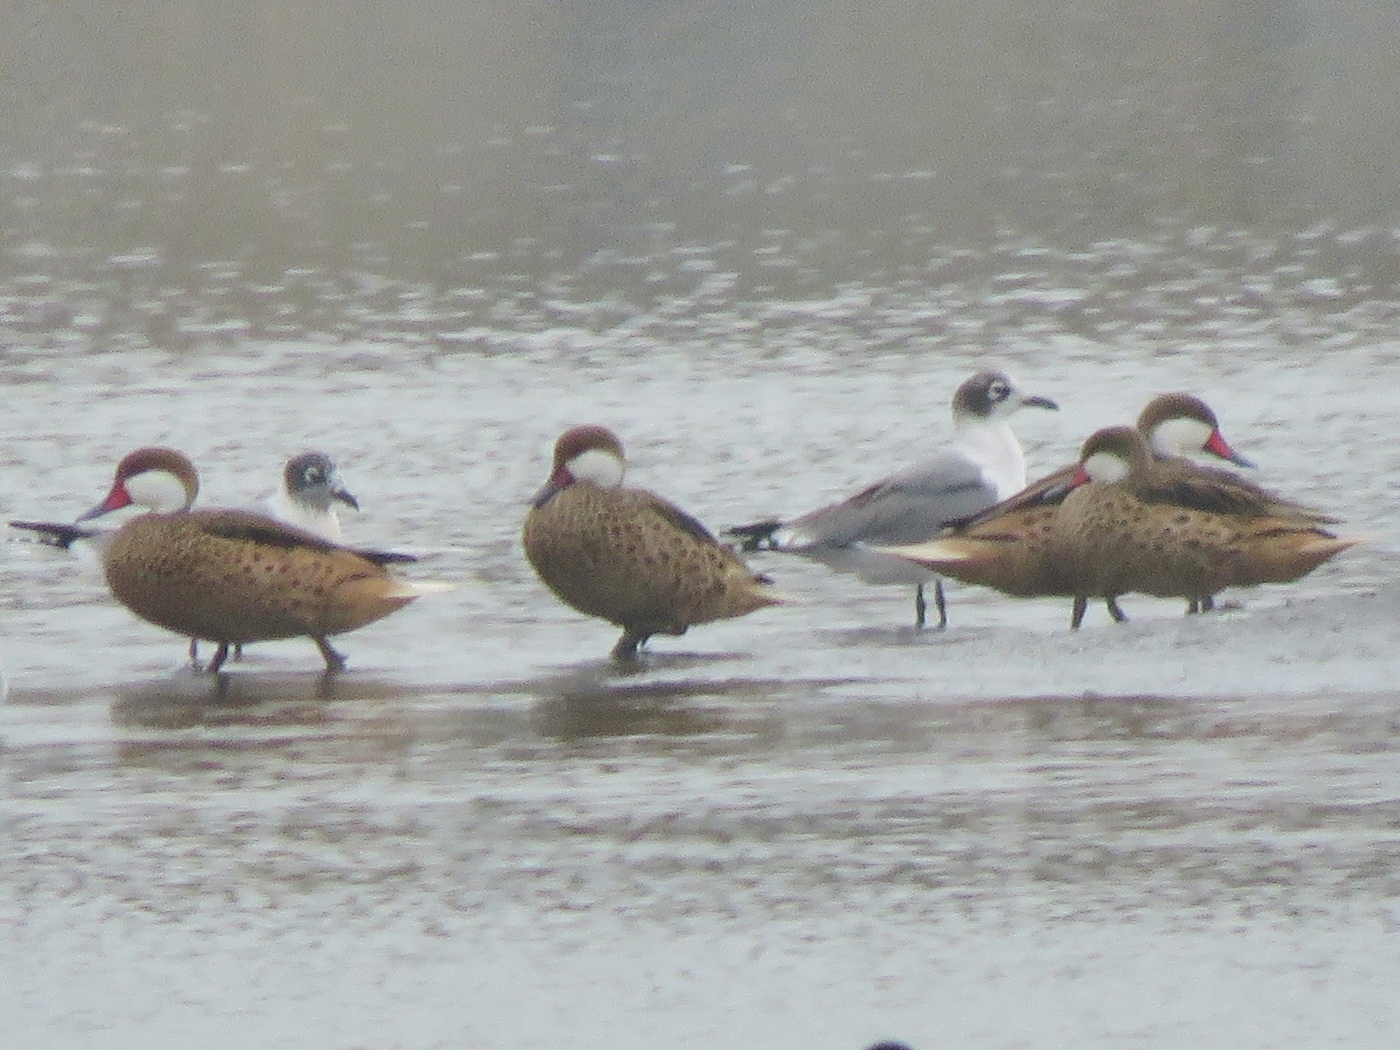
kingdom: Animalia
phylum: Chordata
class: Aves
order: Anseriformes
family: Anatidae
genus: Anas
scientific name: Anas bahamensis
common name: White-cheeked pintail
